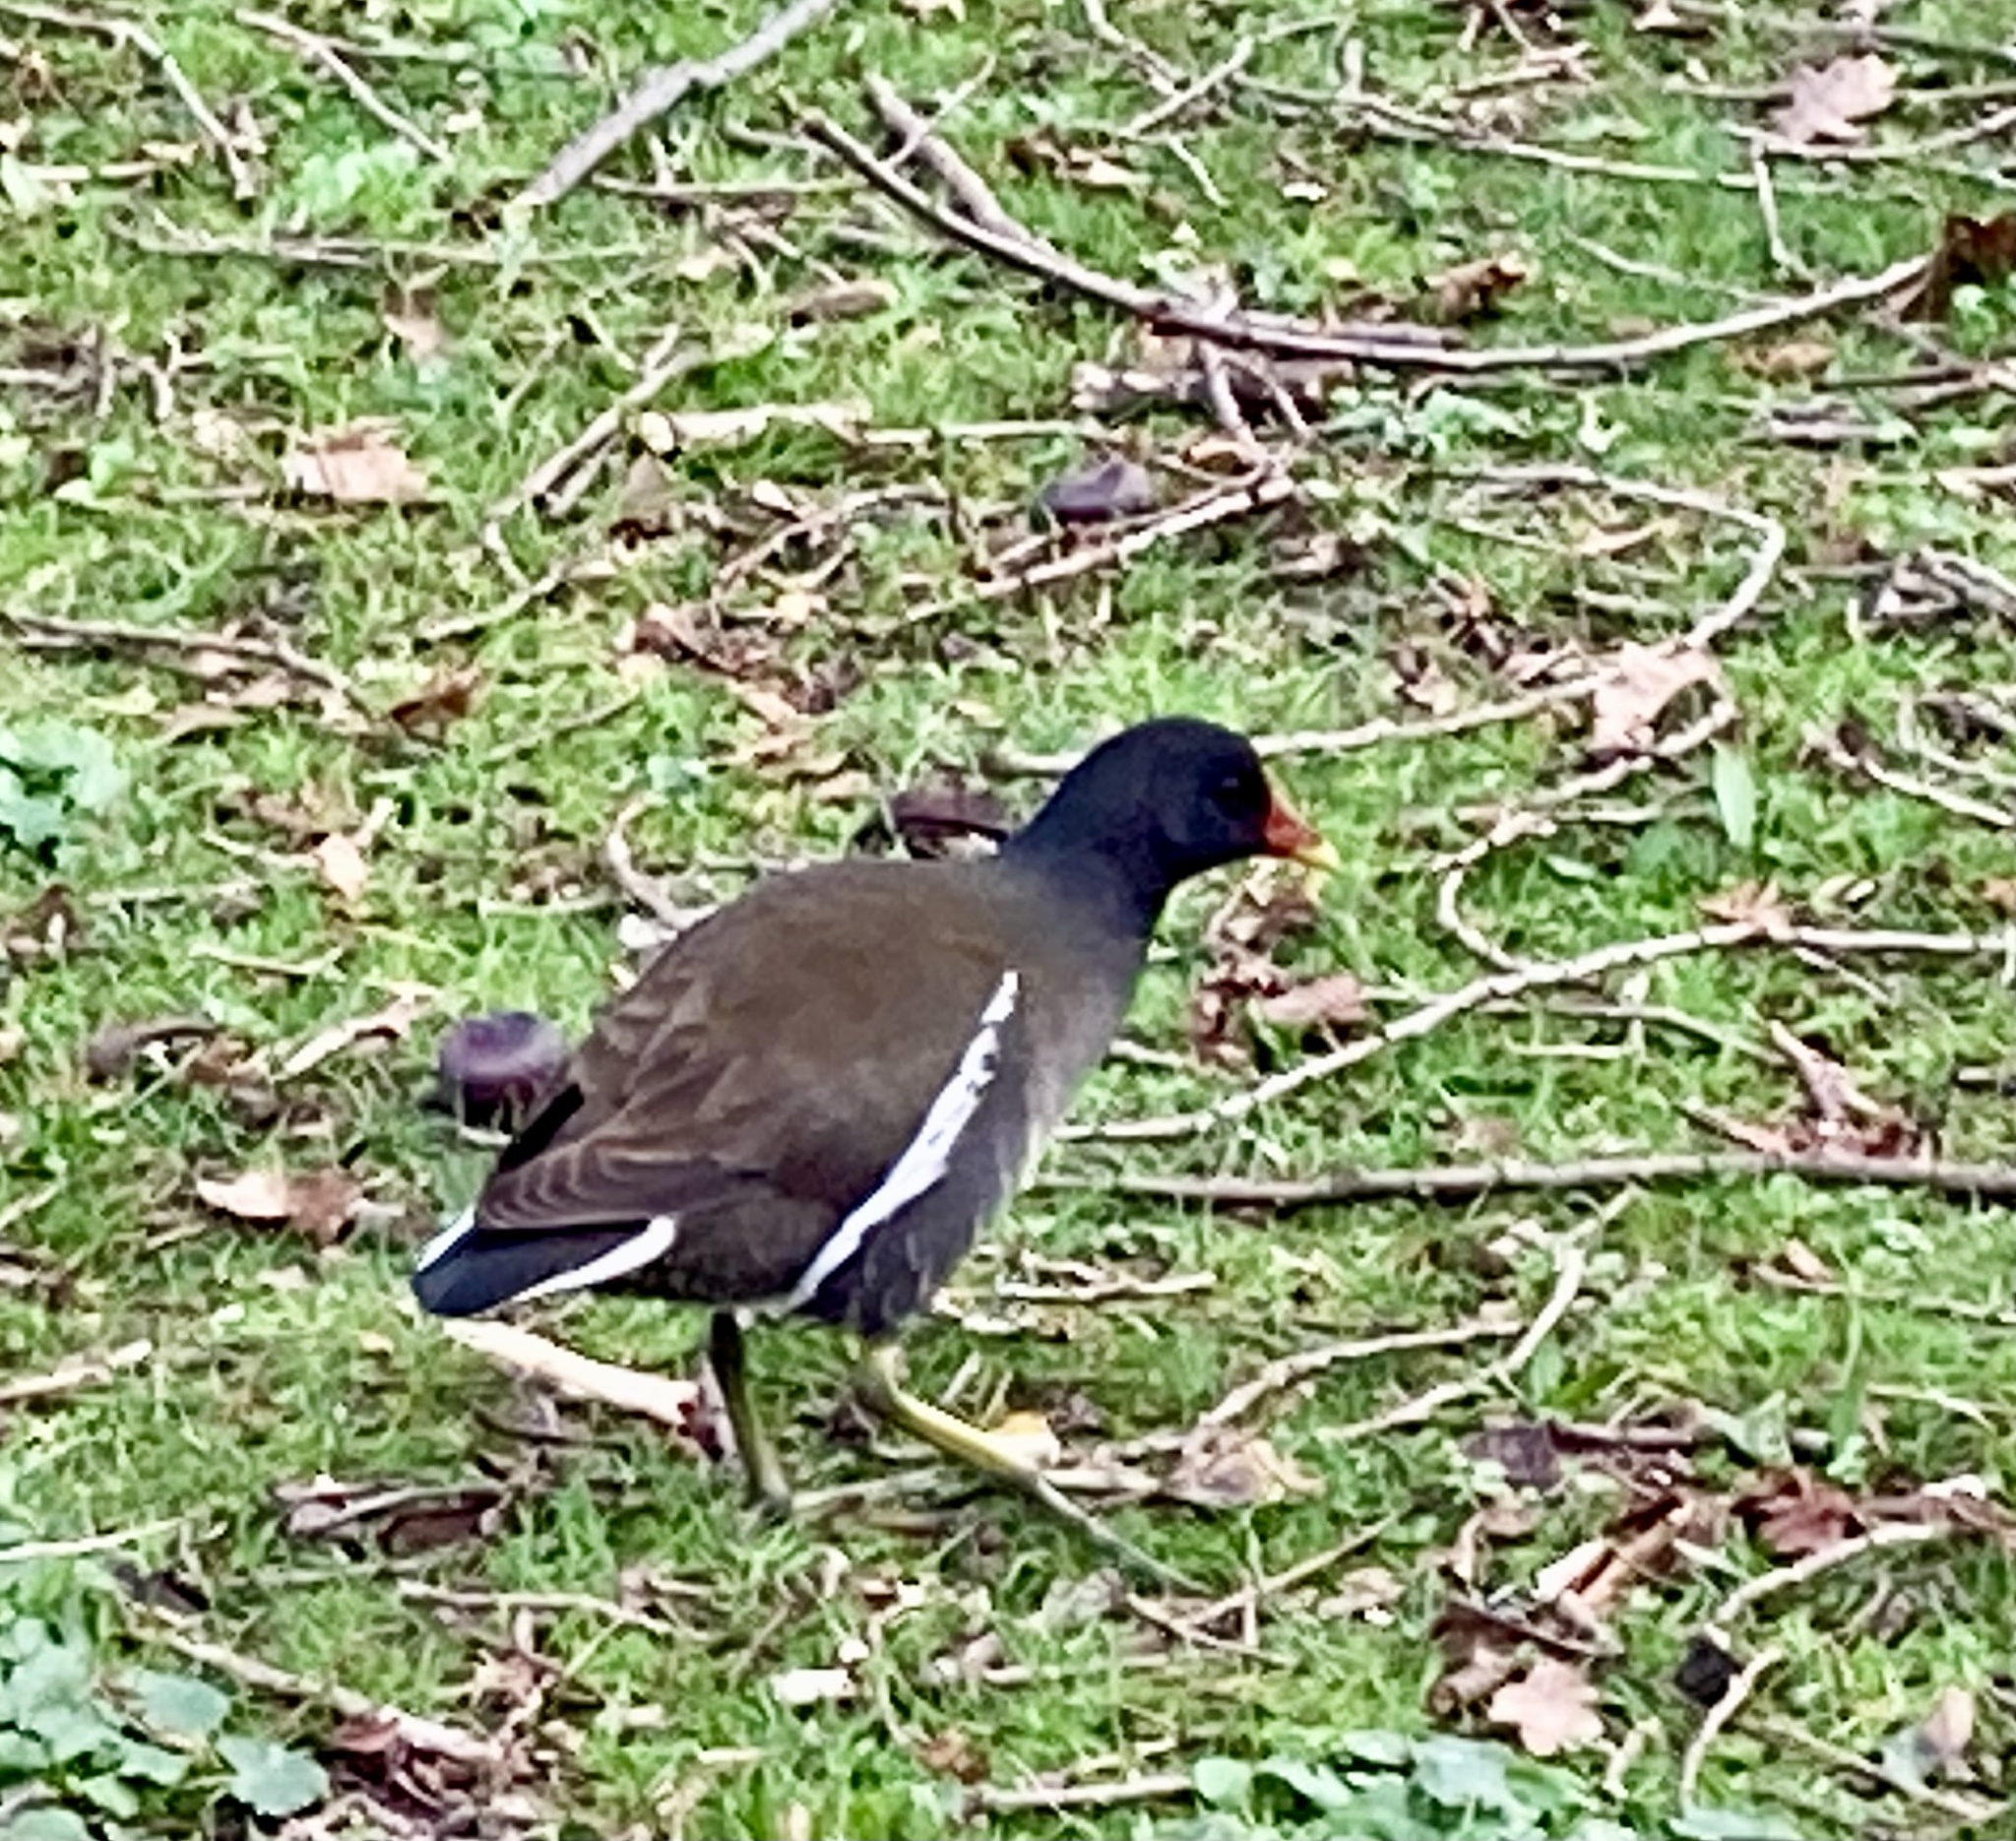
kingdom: Animalia
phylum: Chordata
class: Aves
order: Gruiformes
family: Rallidae
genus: Gallinula
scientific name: Gallinula chloropus
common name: Common moorhen
